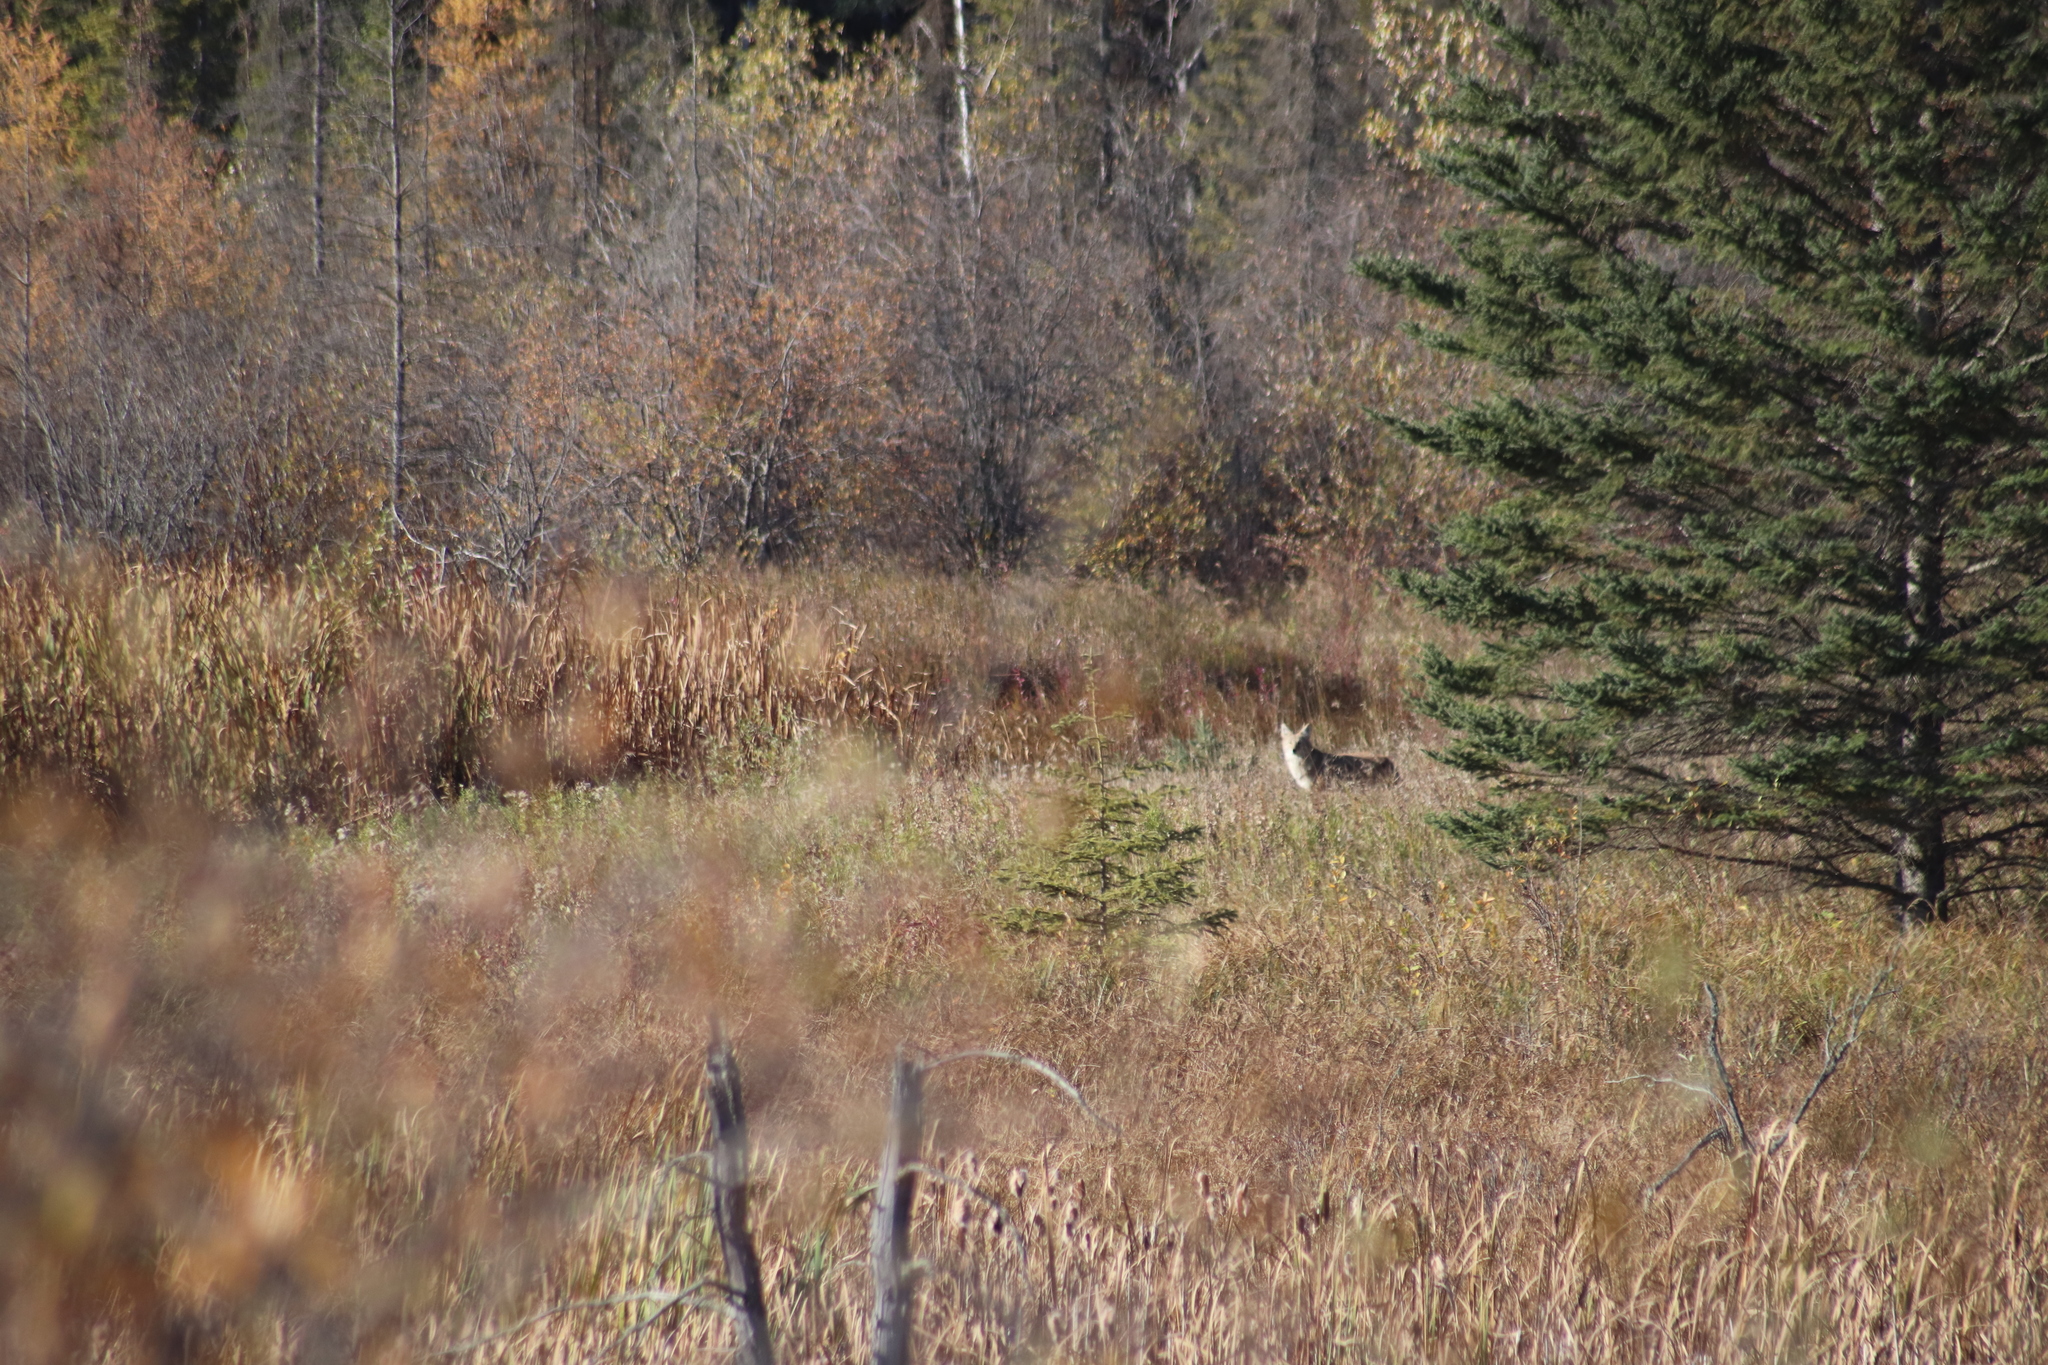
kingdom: Animalia
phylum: Chordata
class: Mammalia
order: Carnivora
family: Canidae
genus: Canis
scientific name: Canis latrans
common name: Coyote
